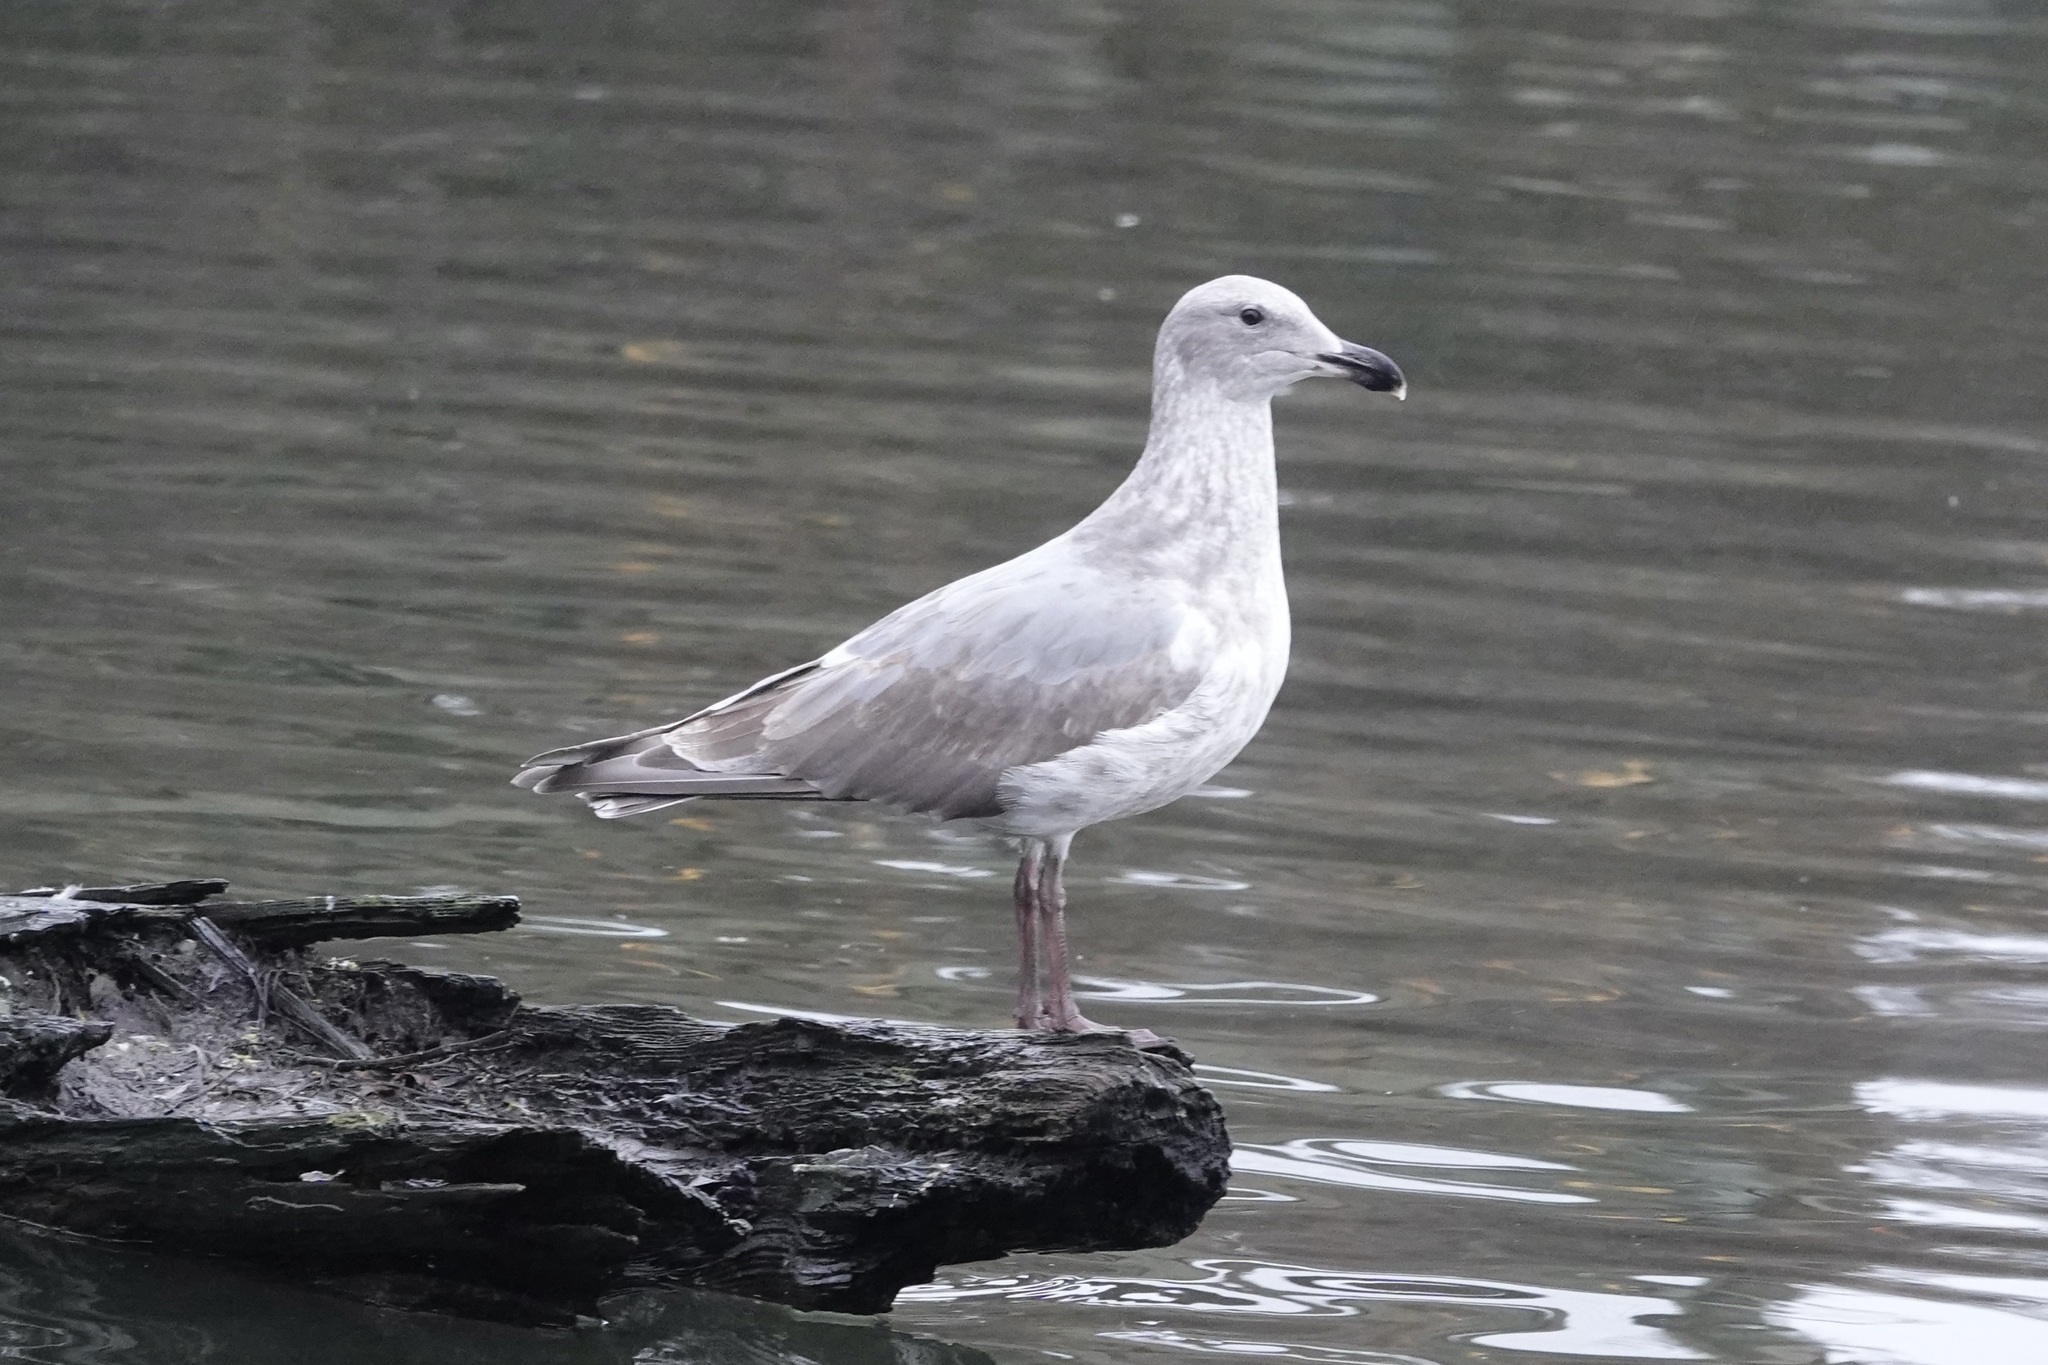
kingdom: Animalia
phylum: Chordata
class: Aves
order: Charadriiformes
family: Laridae
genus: Larus
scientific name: Larus glaucescens
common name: Glaucous-winged gull
